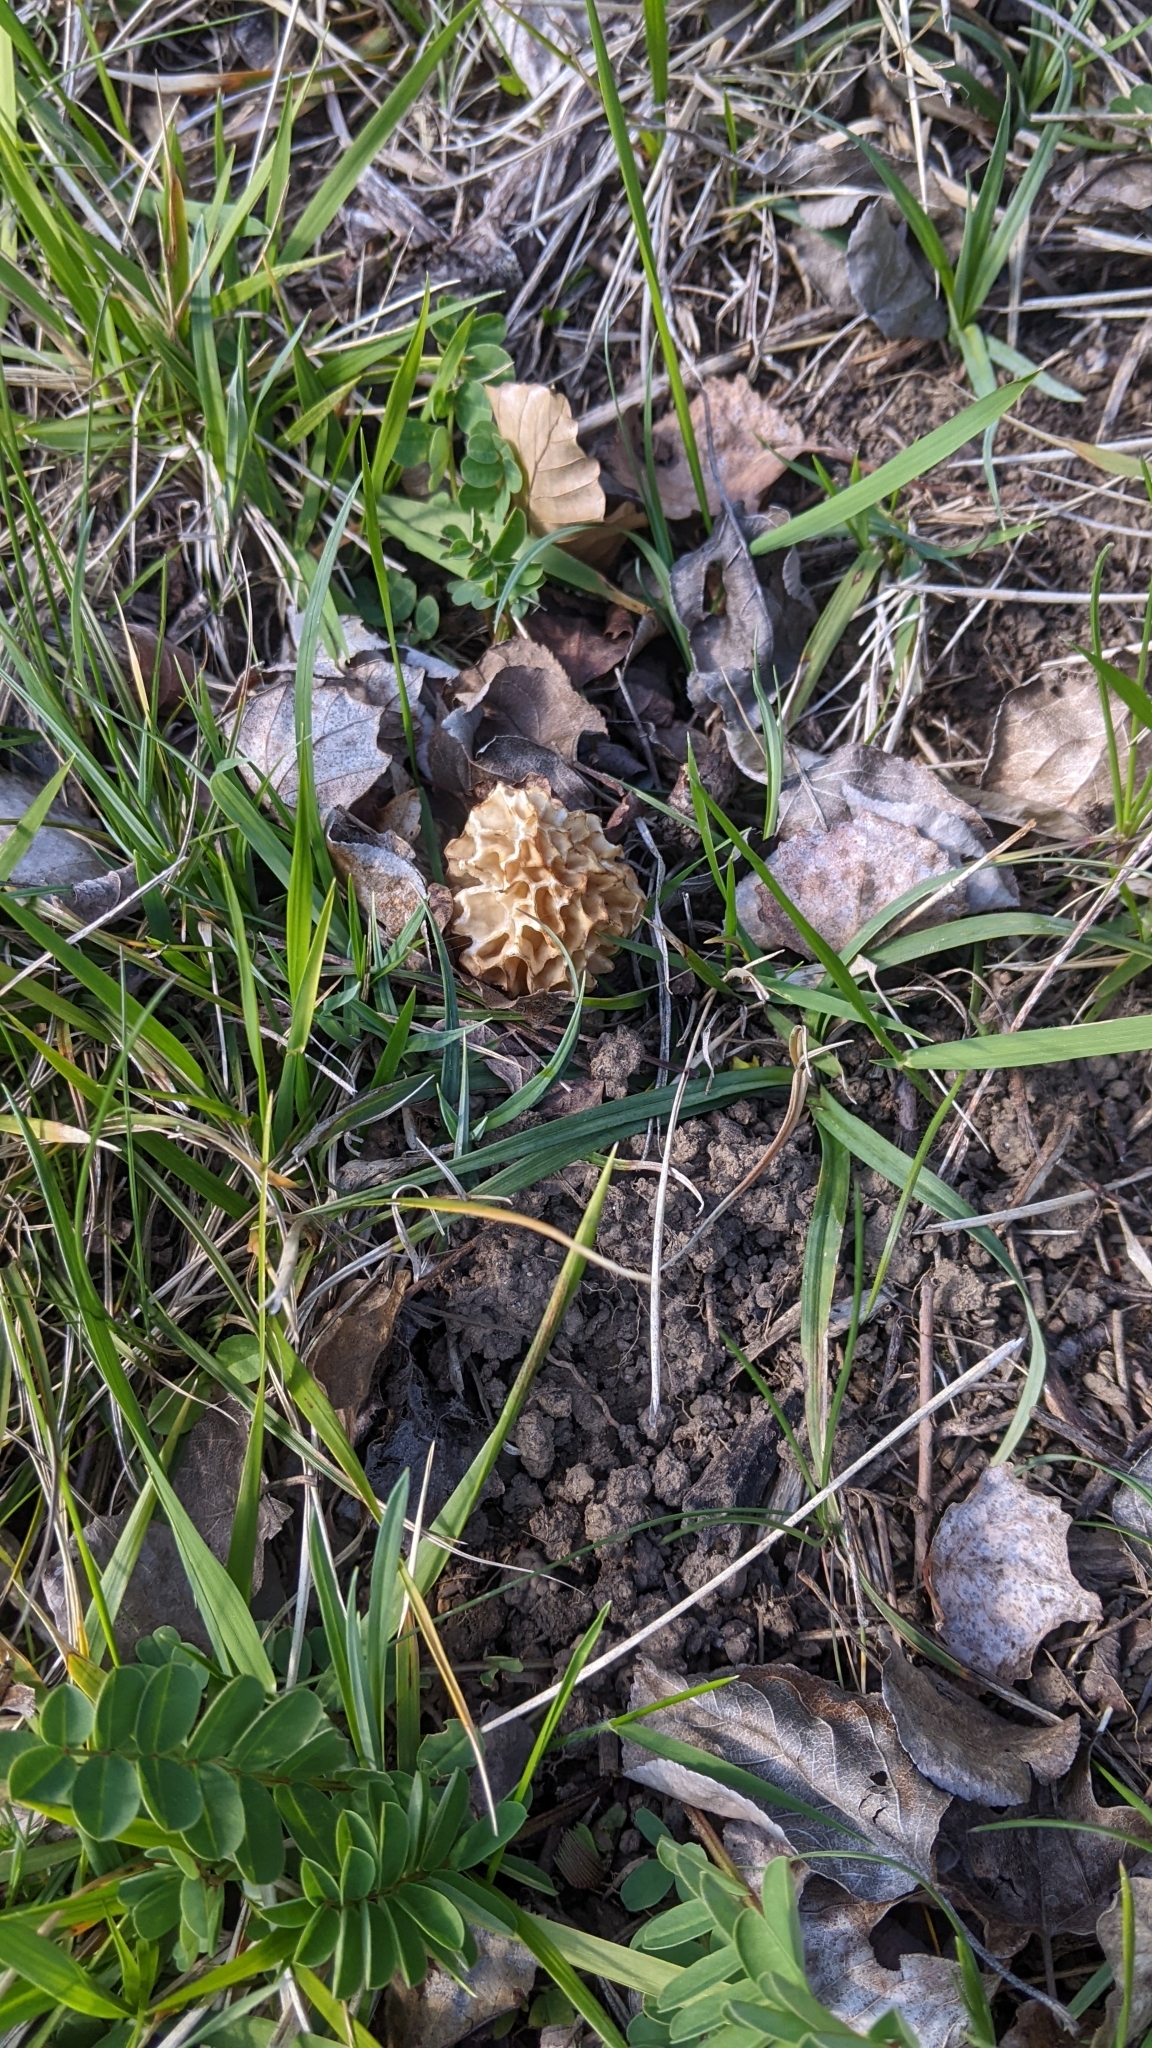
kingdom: Fungi
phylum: Ascomycota
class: Pezizomycetes
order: Pezizales
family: Morchellaceae
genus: Morchella
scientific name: Morchella esculenta
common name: Morel
